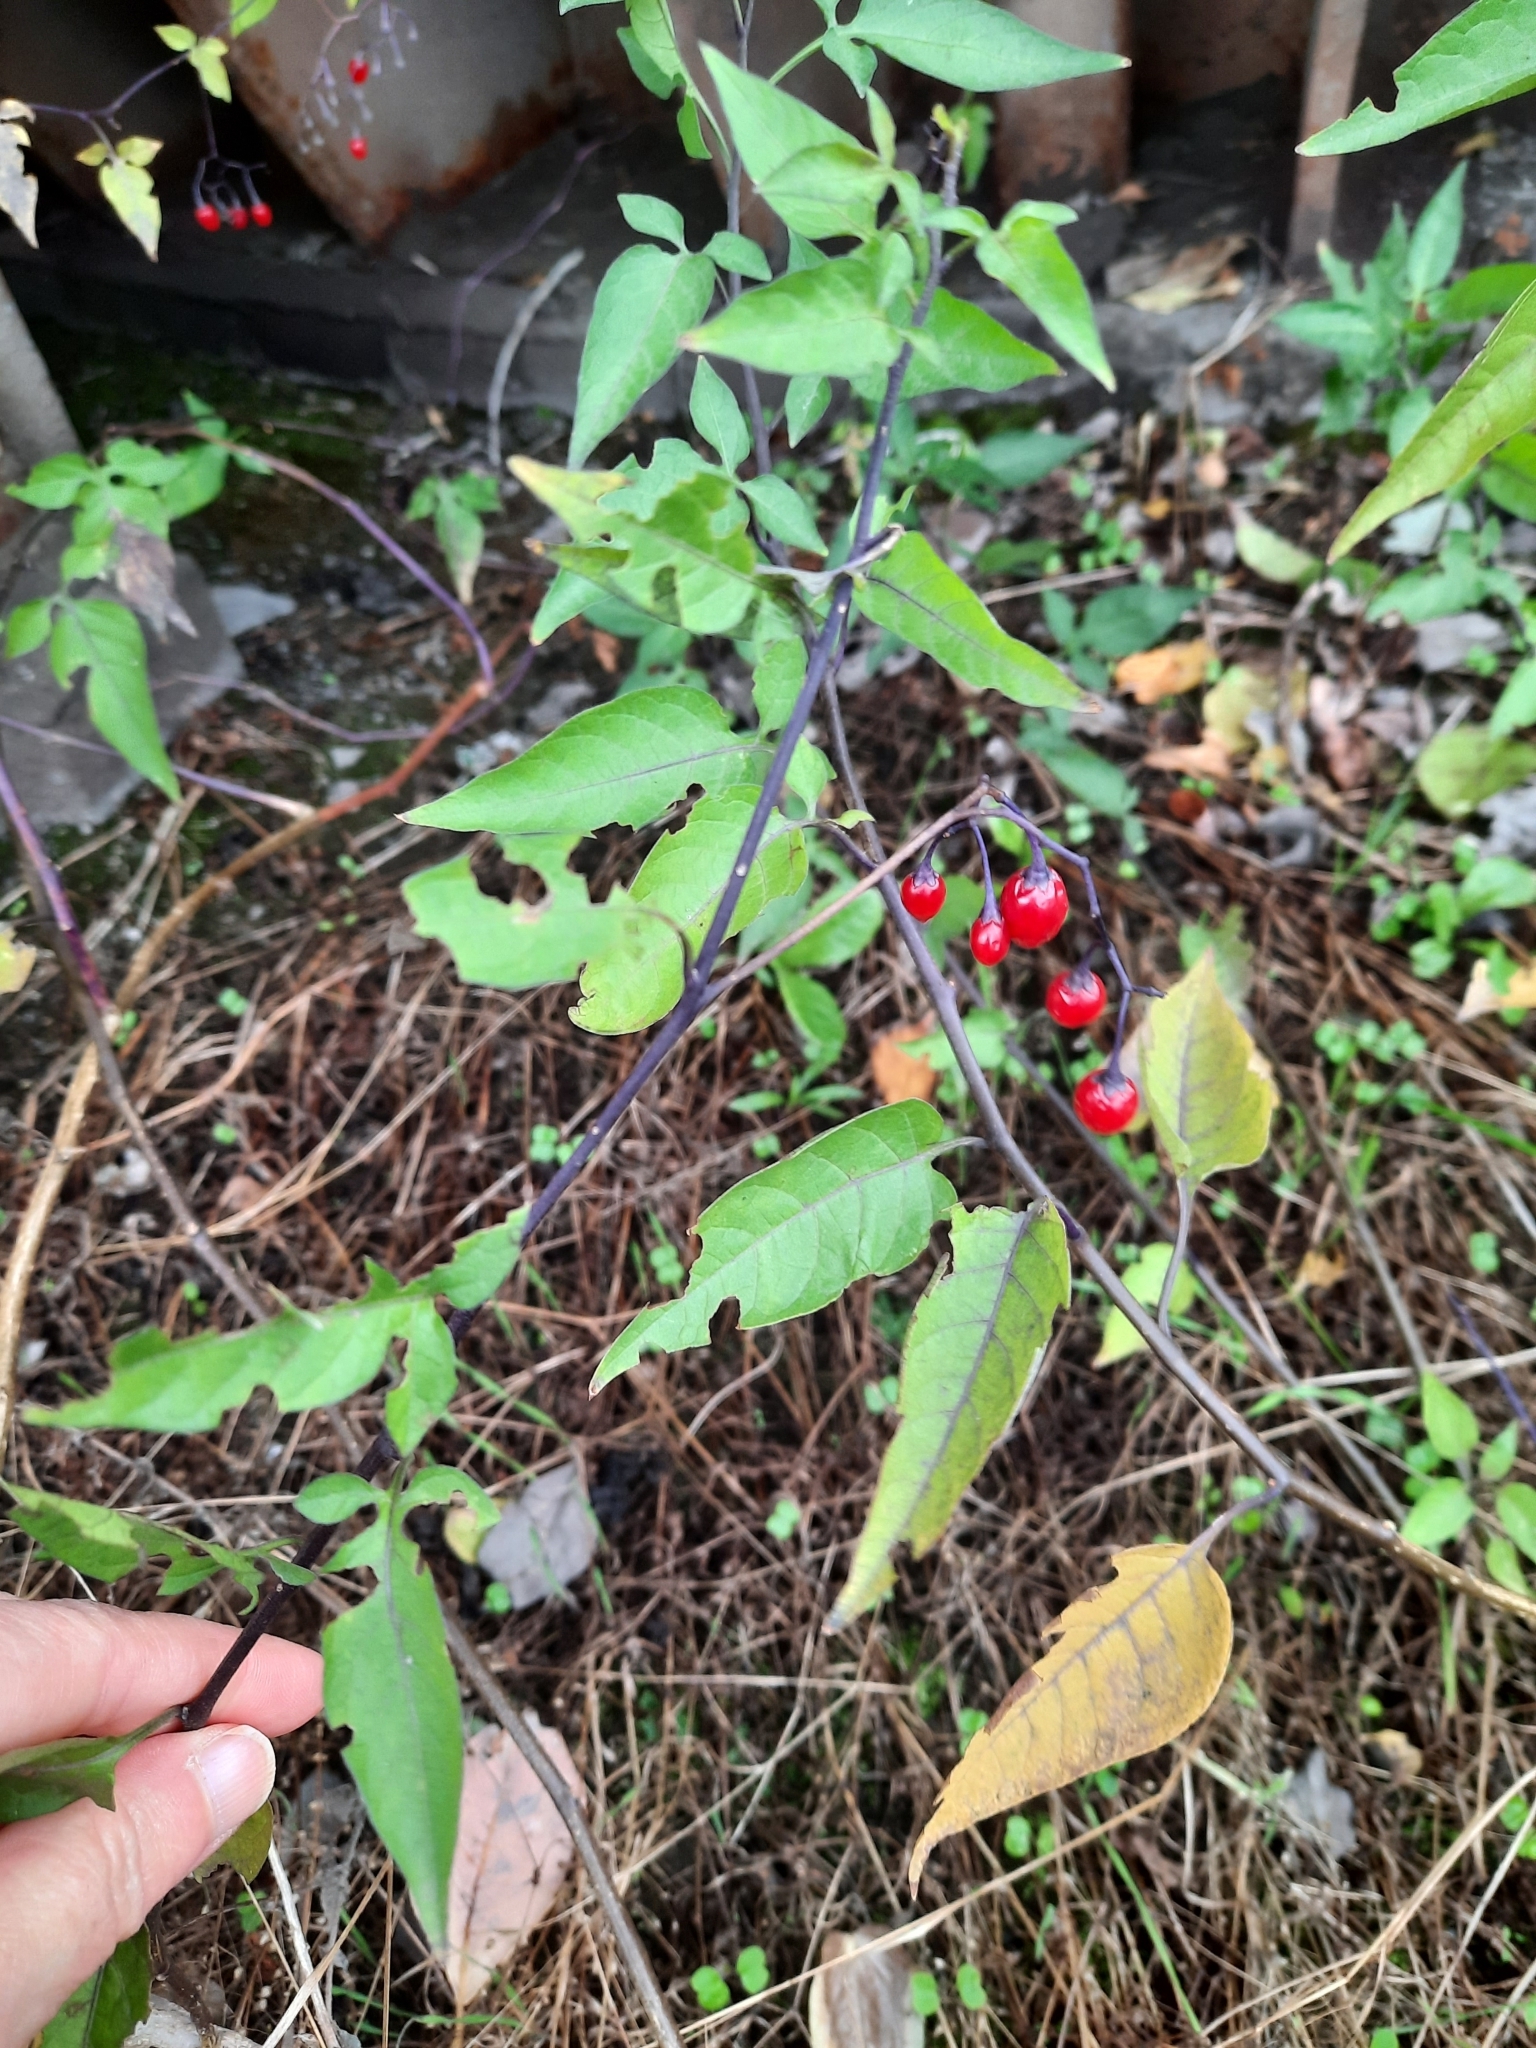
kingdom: Plantae
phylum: Tracheophyta
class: Magnoliopsida
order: Solanales
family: Solanaceae
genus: Solanum
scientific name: Solanum dulcamara
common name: Climbing nightshade
